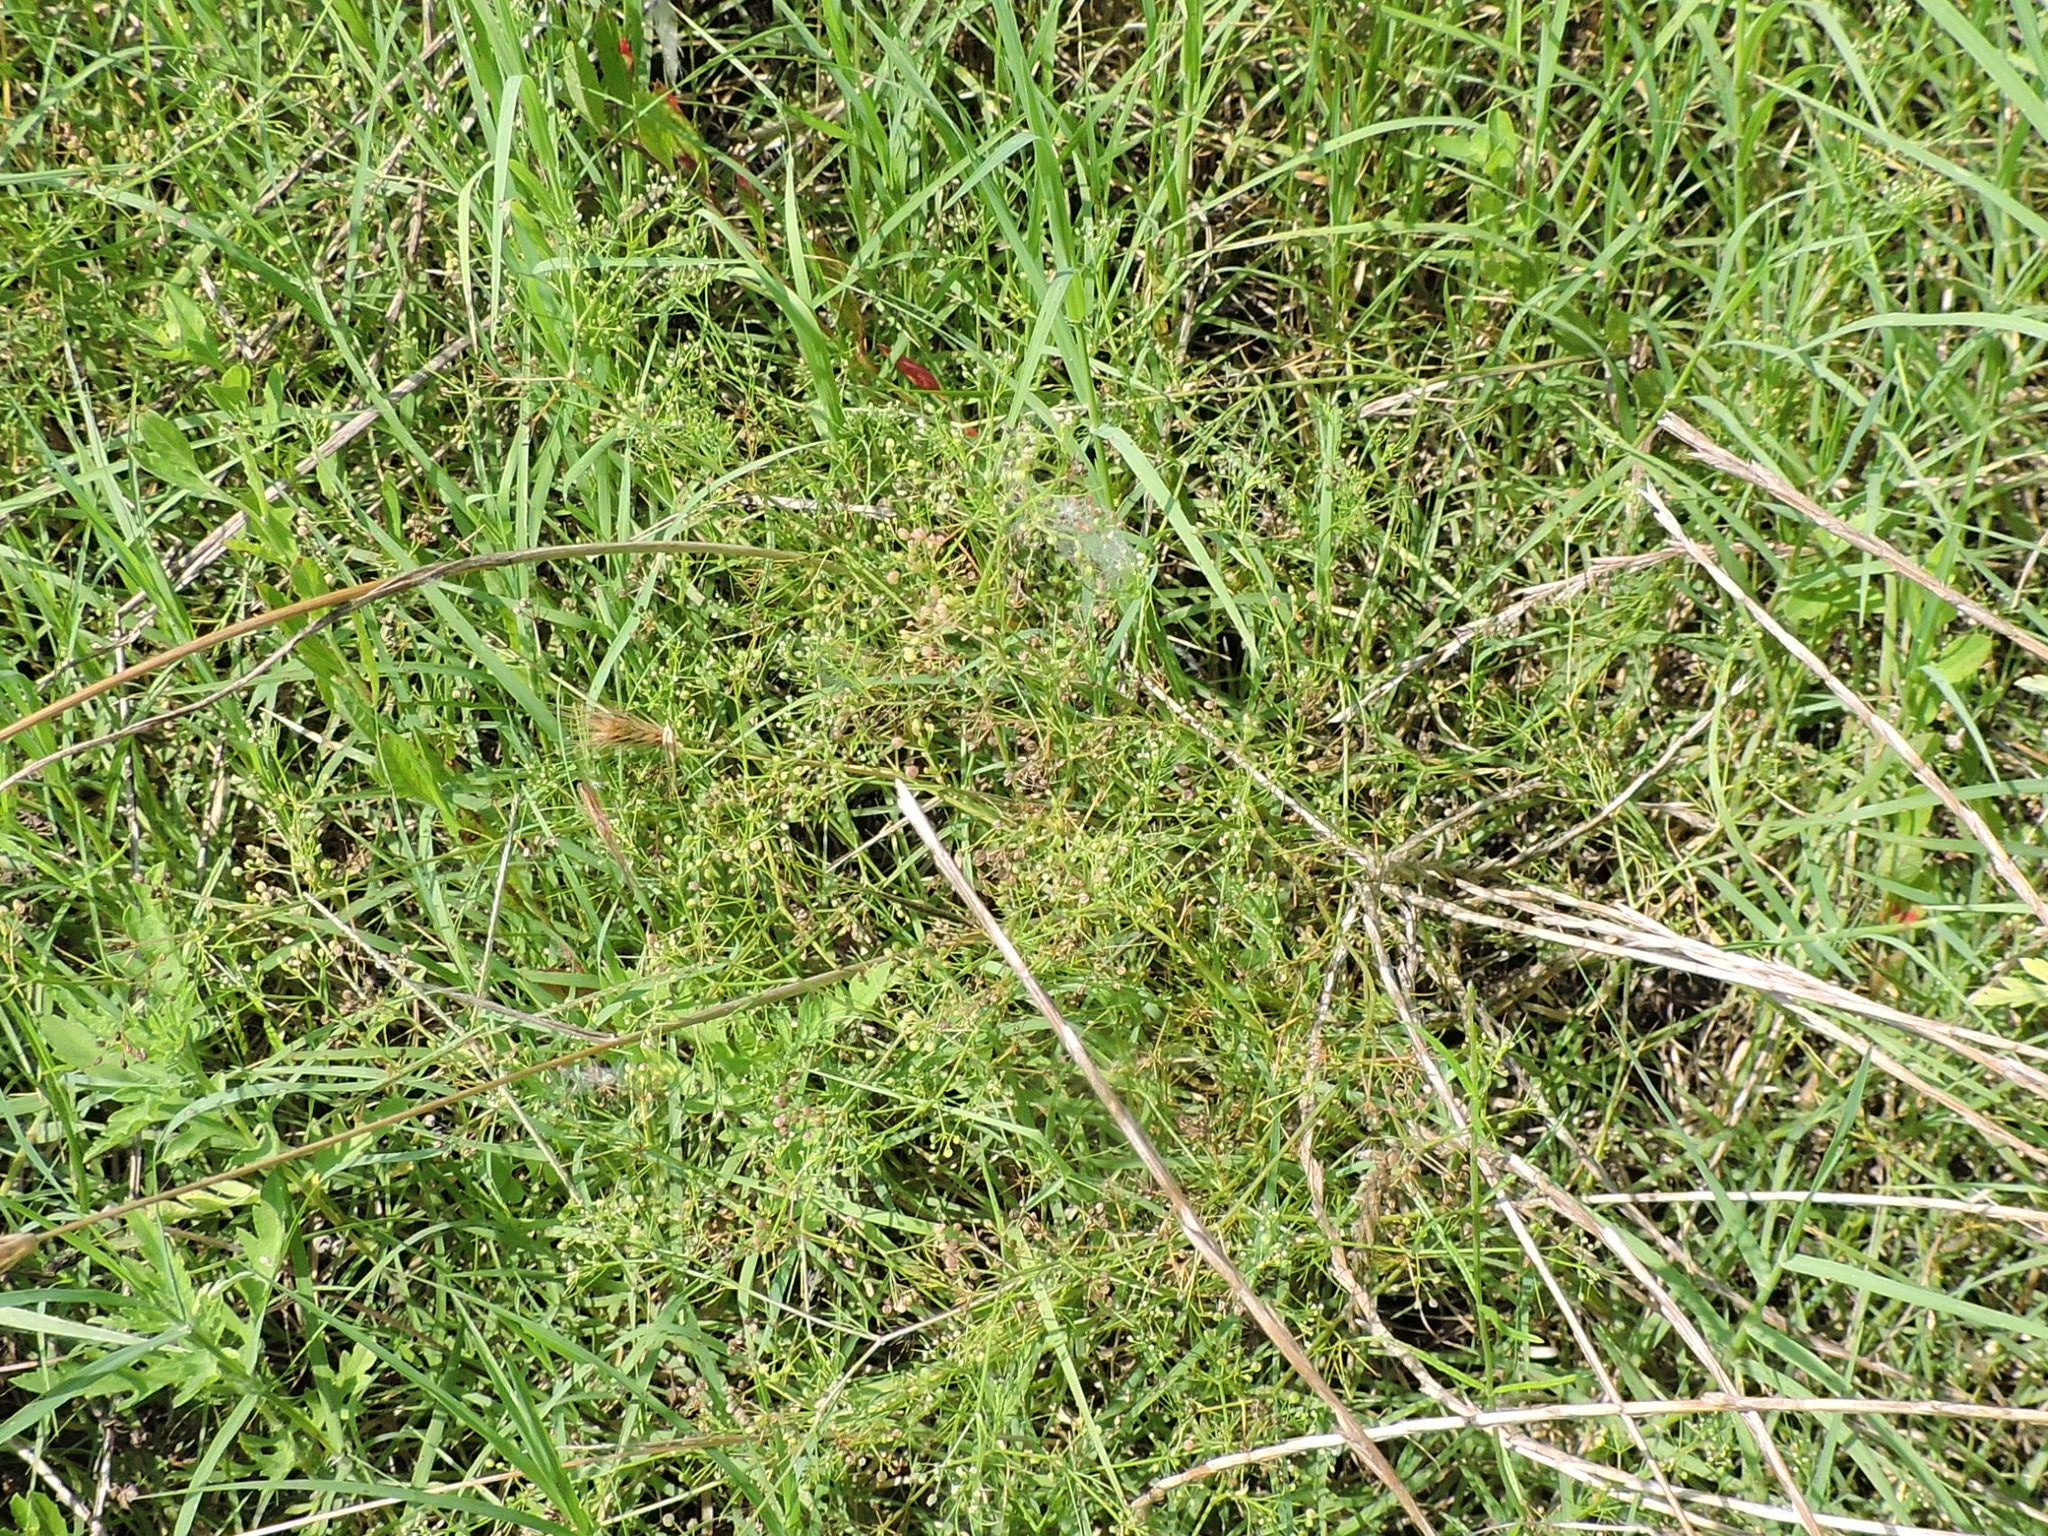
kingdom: Plantae
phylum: Tracheophyta
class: Magnoliopsida
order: Apiales
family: Apiaceae
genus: Cyclospermum
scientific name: Cyclospermum leptophyllum
